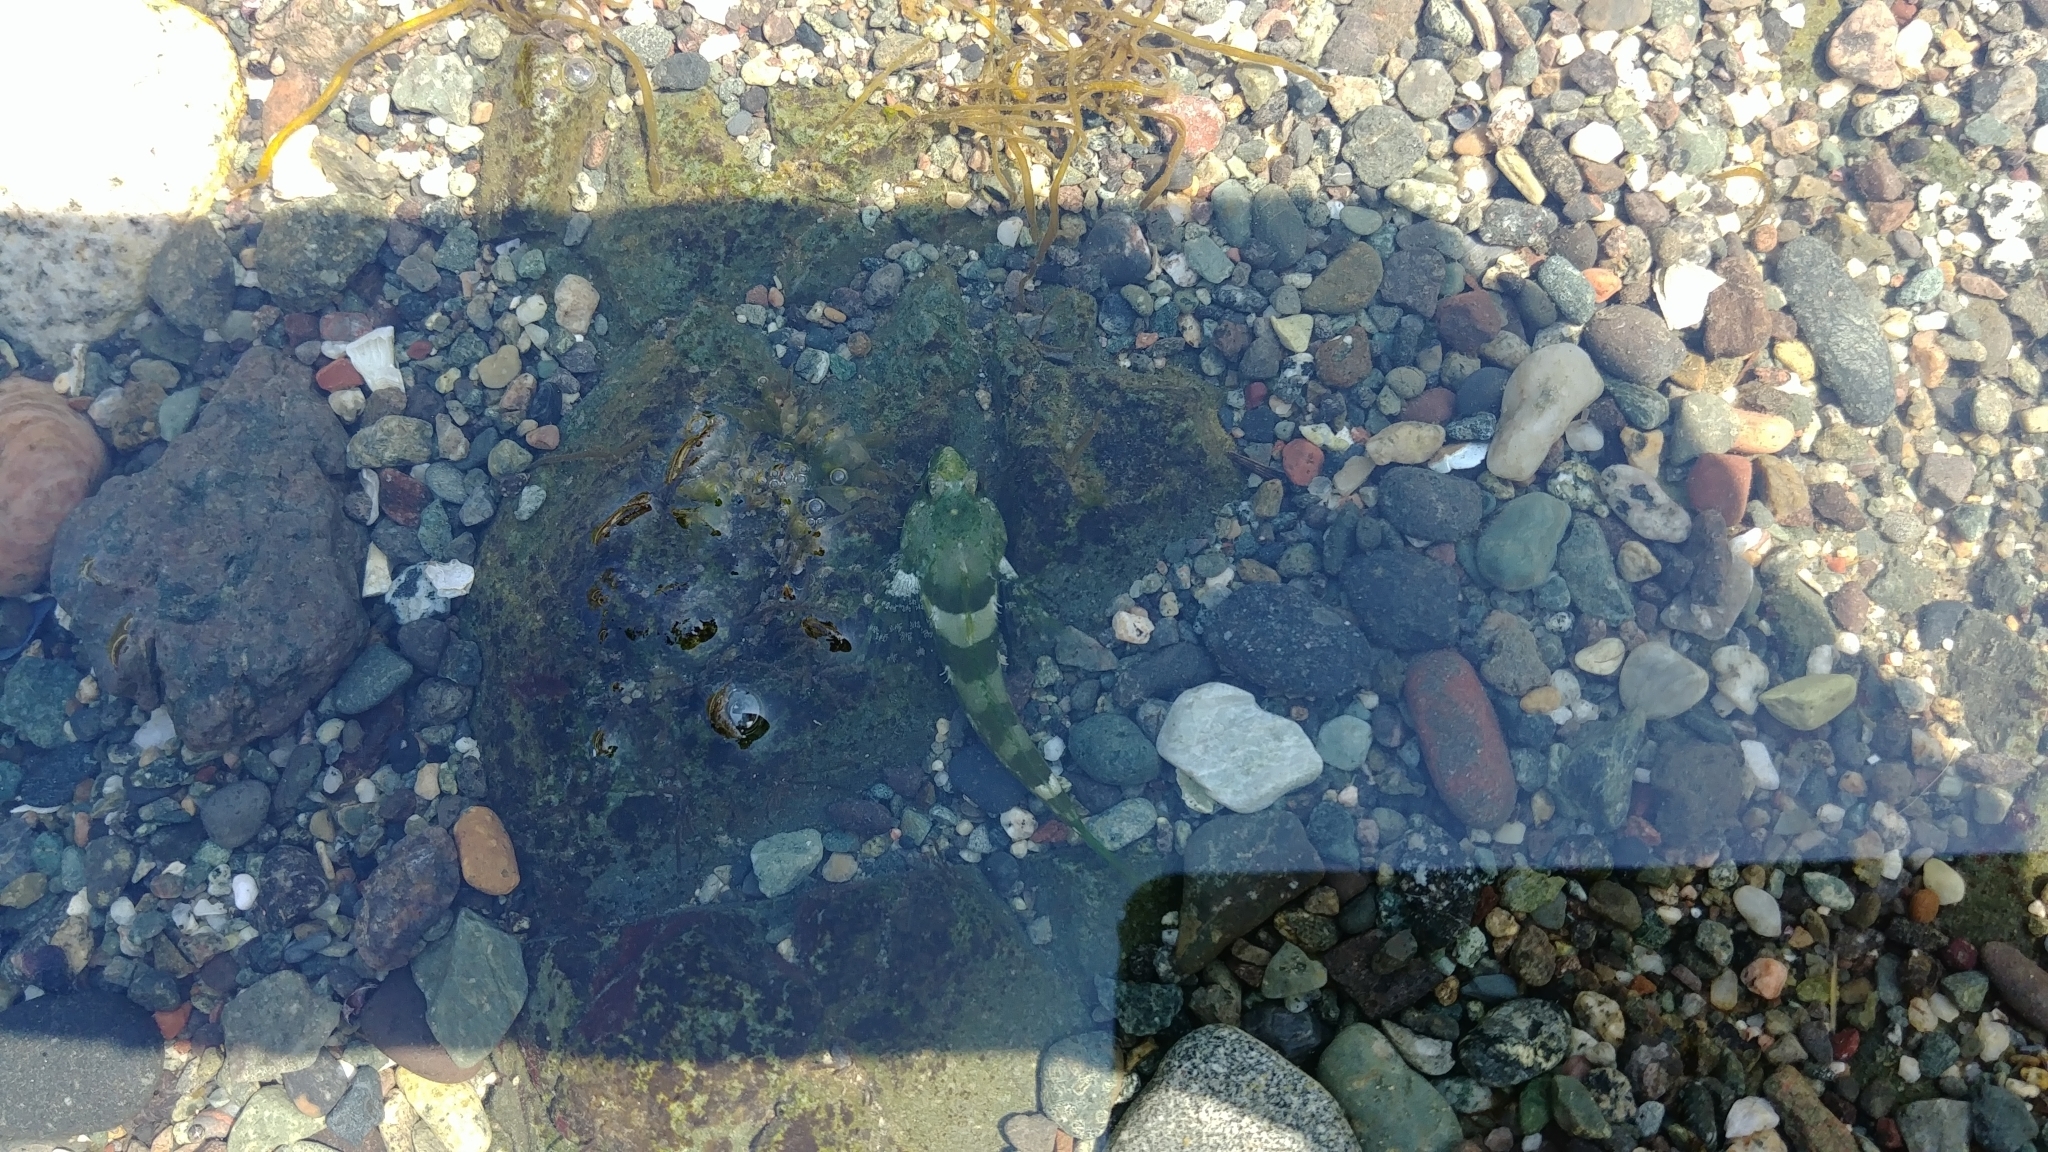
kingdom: Animalia
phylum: Chordata
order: Scorpaeniformes
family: Cottidae
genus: Oligocottus
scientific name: Oligocottus maculosus
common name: Tidepool sculpin
